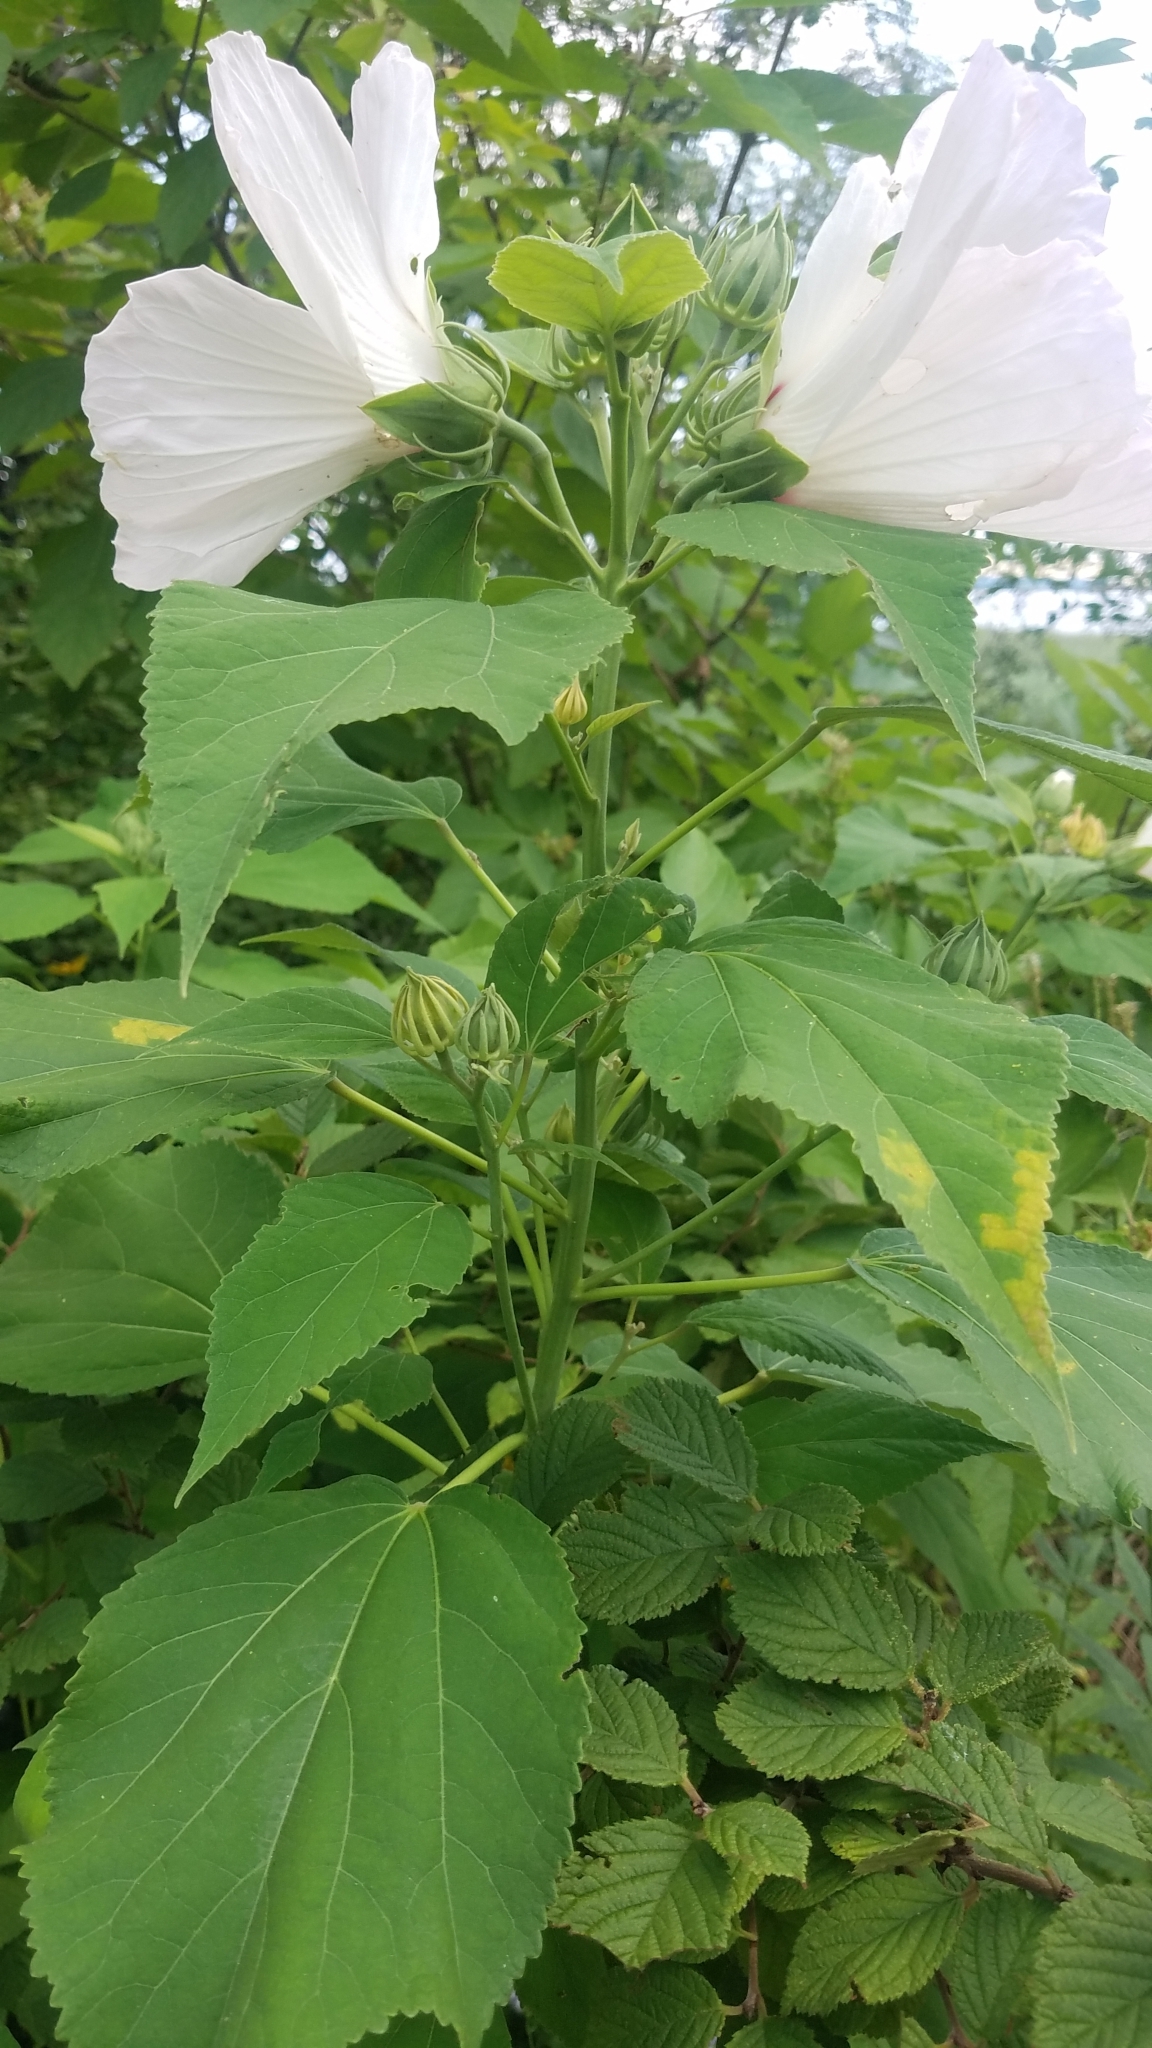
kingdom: Plantae
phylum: Tracheophyta
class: Magnoliopsida
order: Malvales
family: Malvaceae
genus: Hibiscus
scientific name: Hibiscus moscheutos
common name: Common rose-mallow
